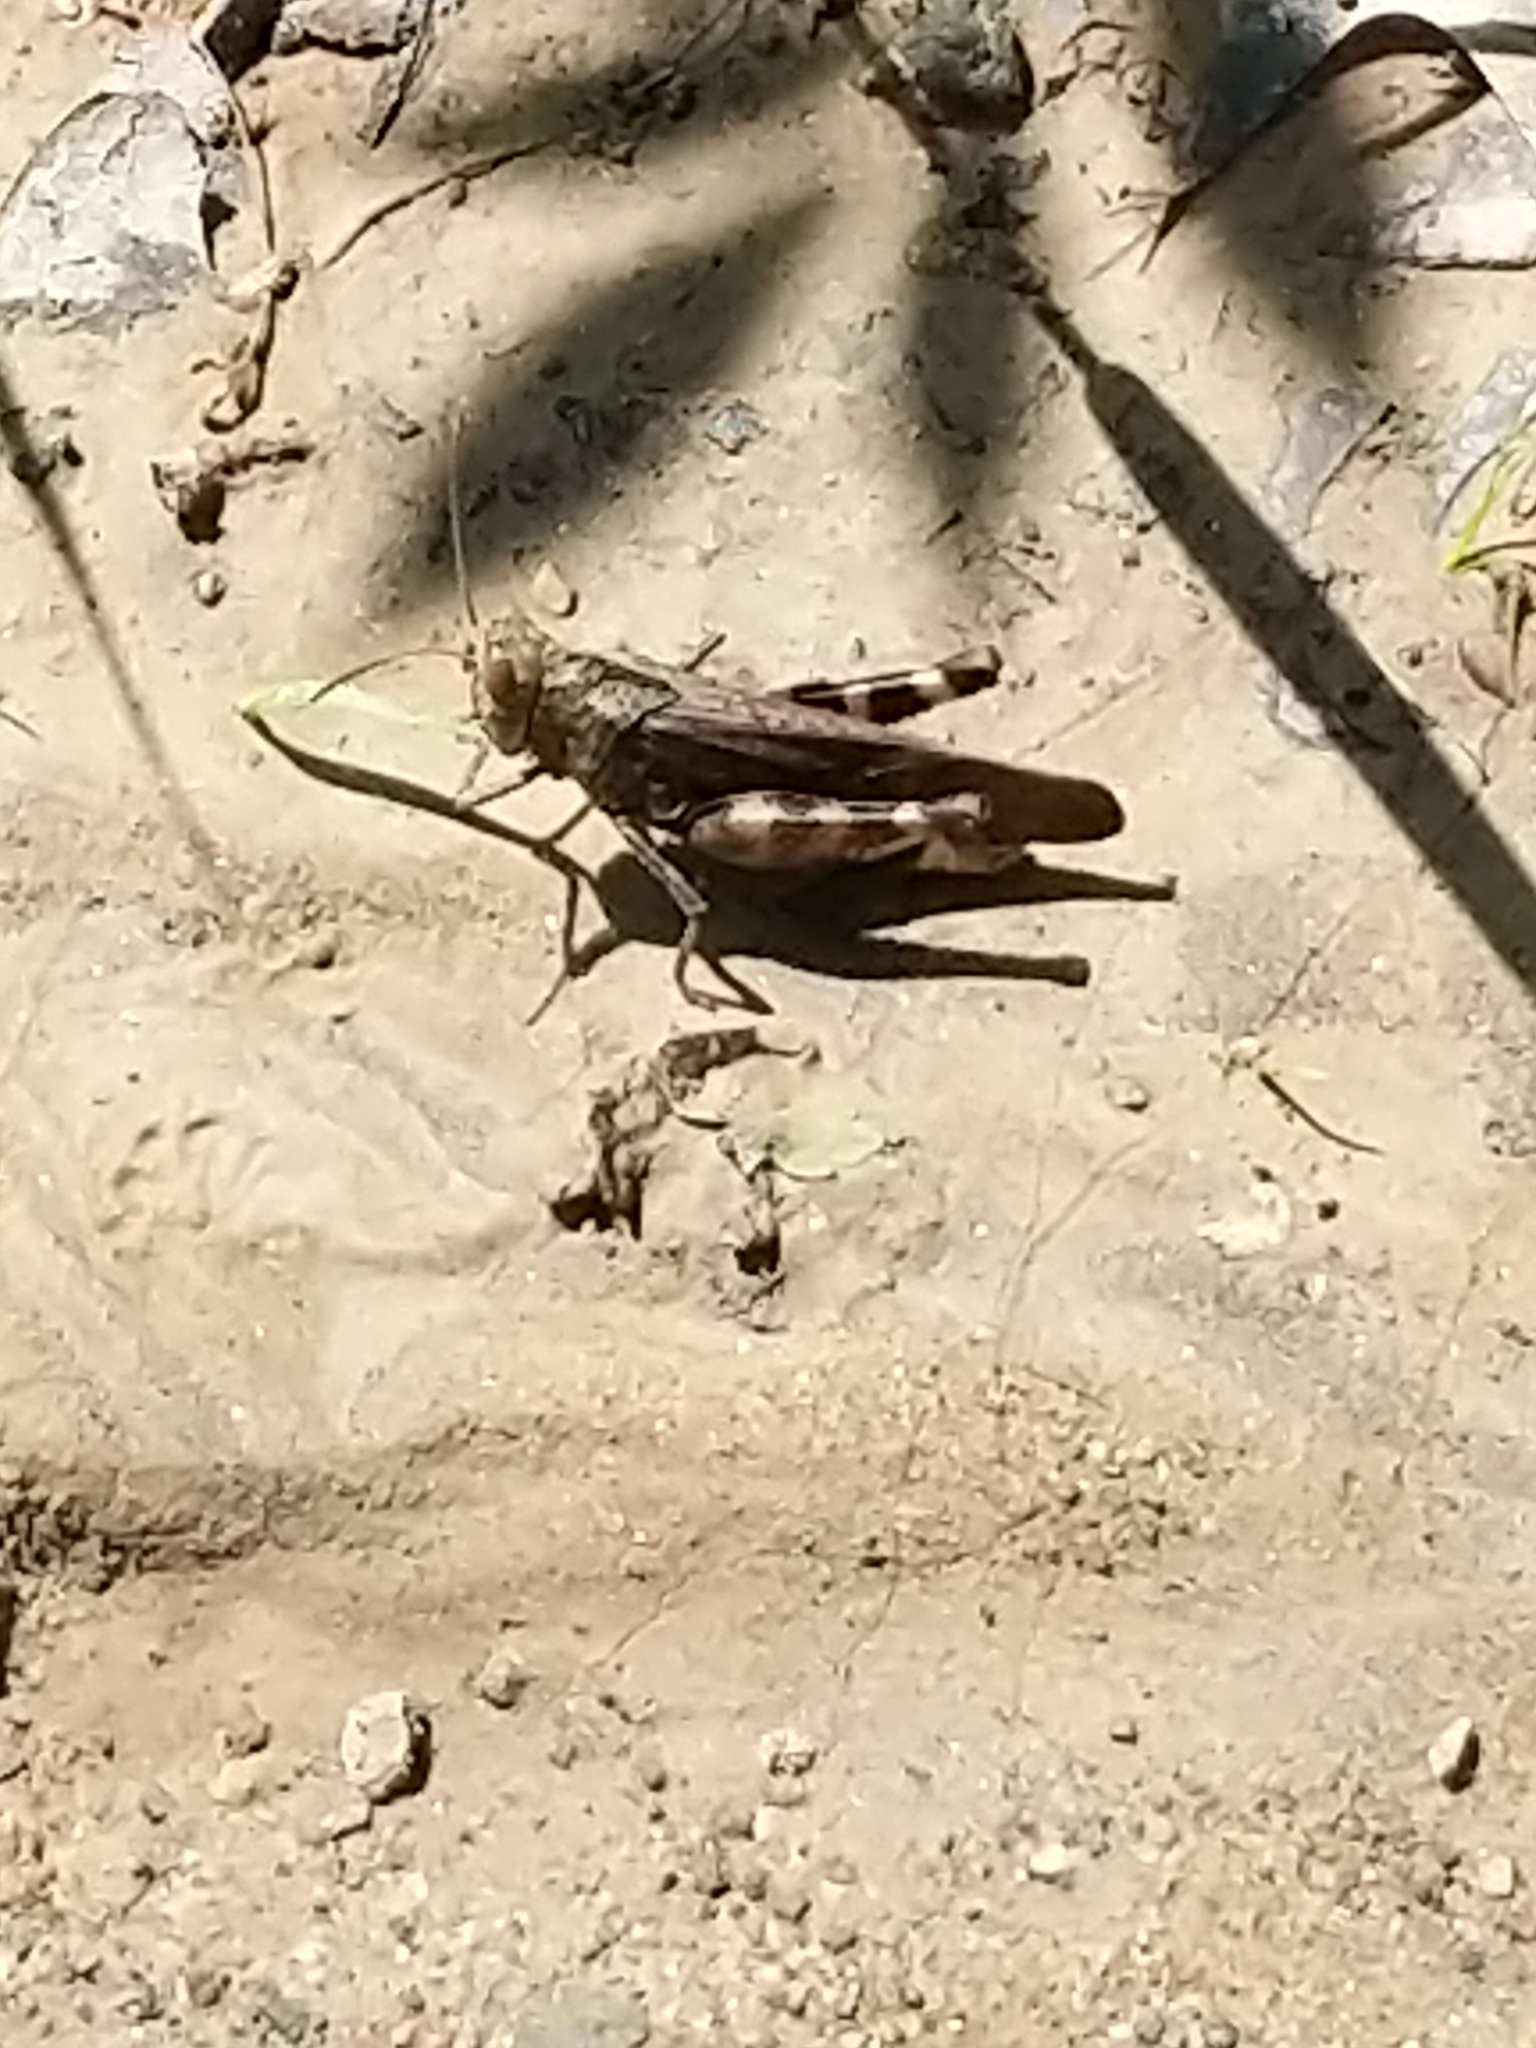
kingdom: Animalia
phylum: Arthropoda
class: Insecta
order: Orthoptera
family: Acrididae
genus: Arphia
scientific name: Arphia sulphurea
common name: Spring yellow-winged locust
